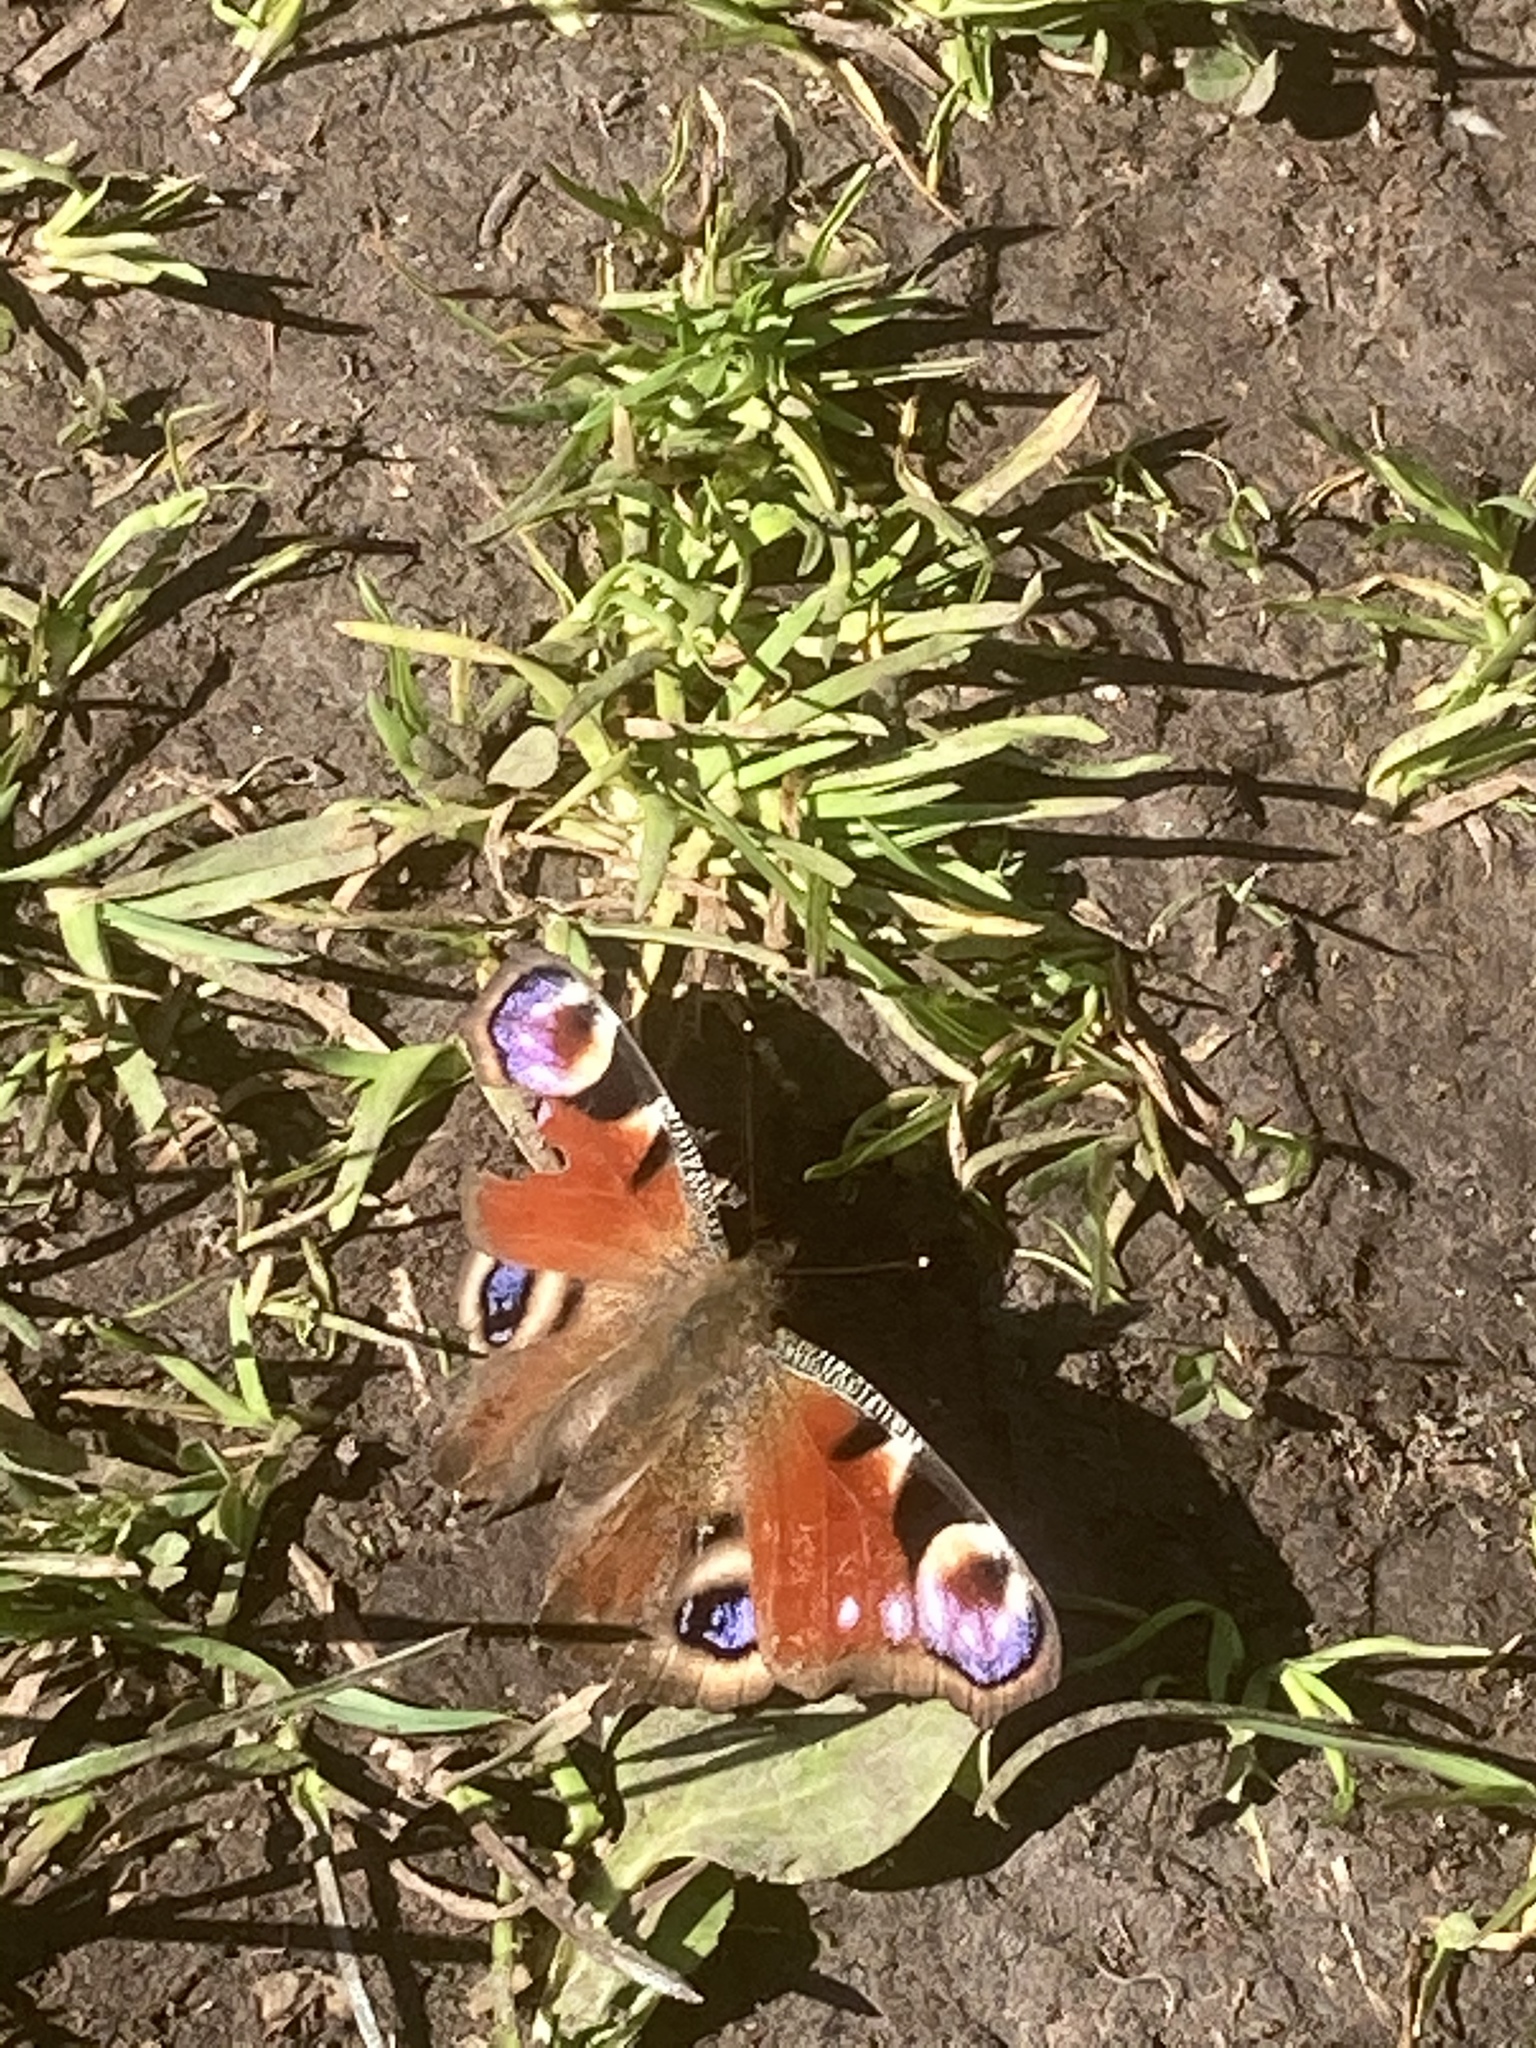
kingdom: Animalia
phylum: Arthropoda
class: Insecta
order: Lepidoptera
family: Nymphalidae
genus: Aglais
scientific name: Aglais io
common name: Peacock
